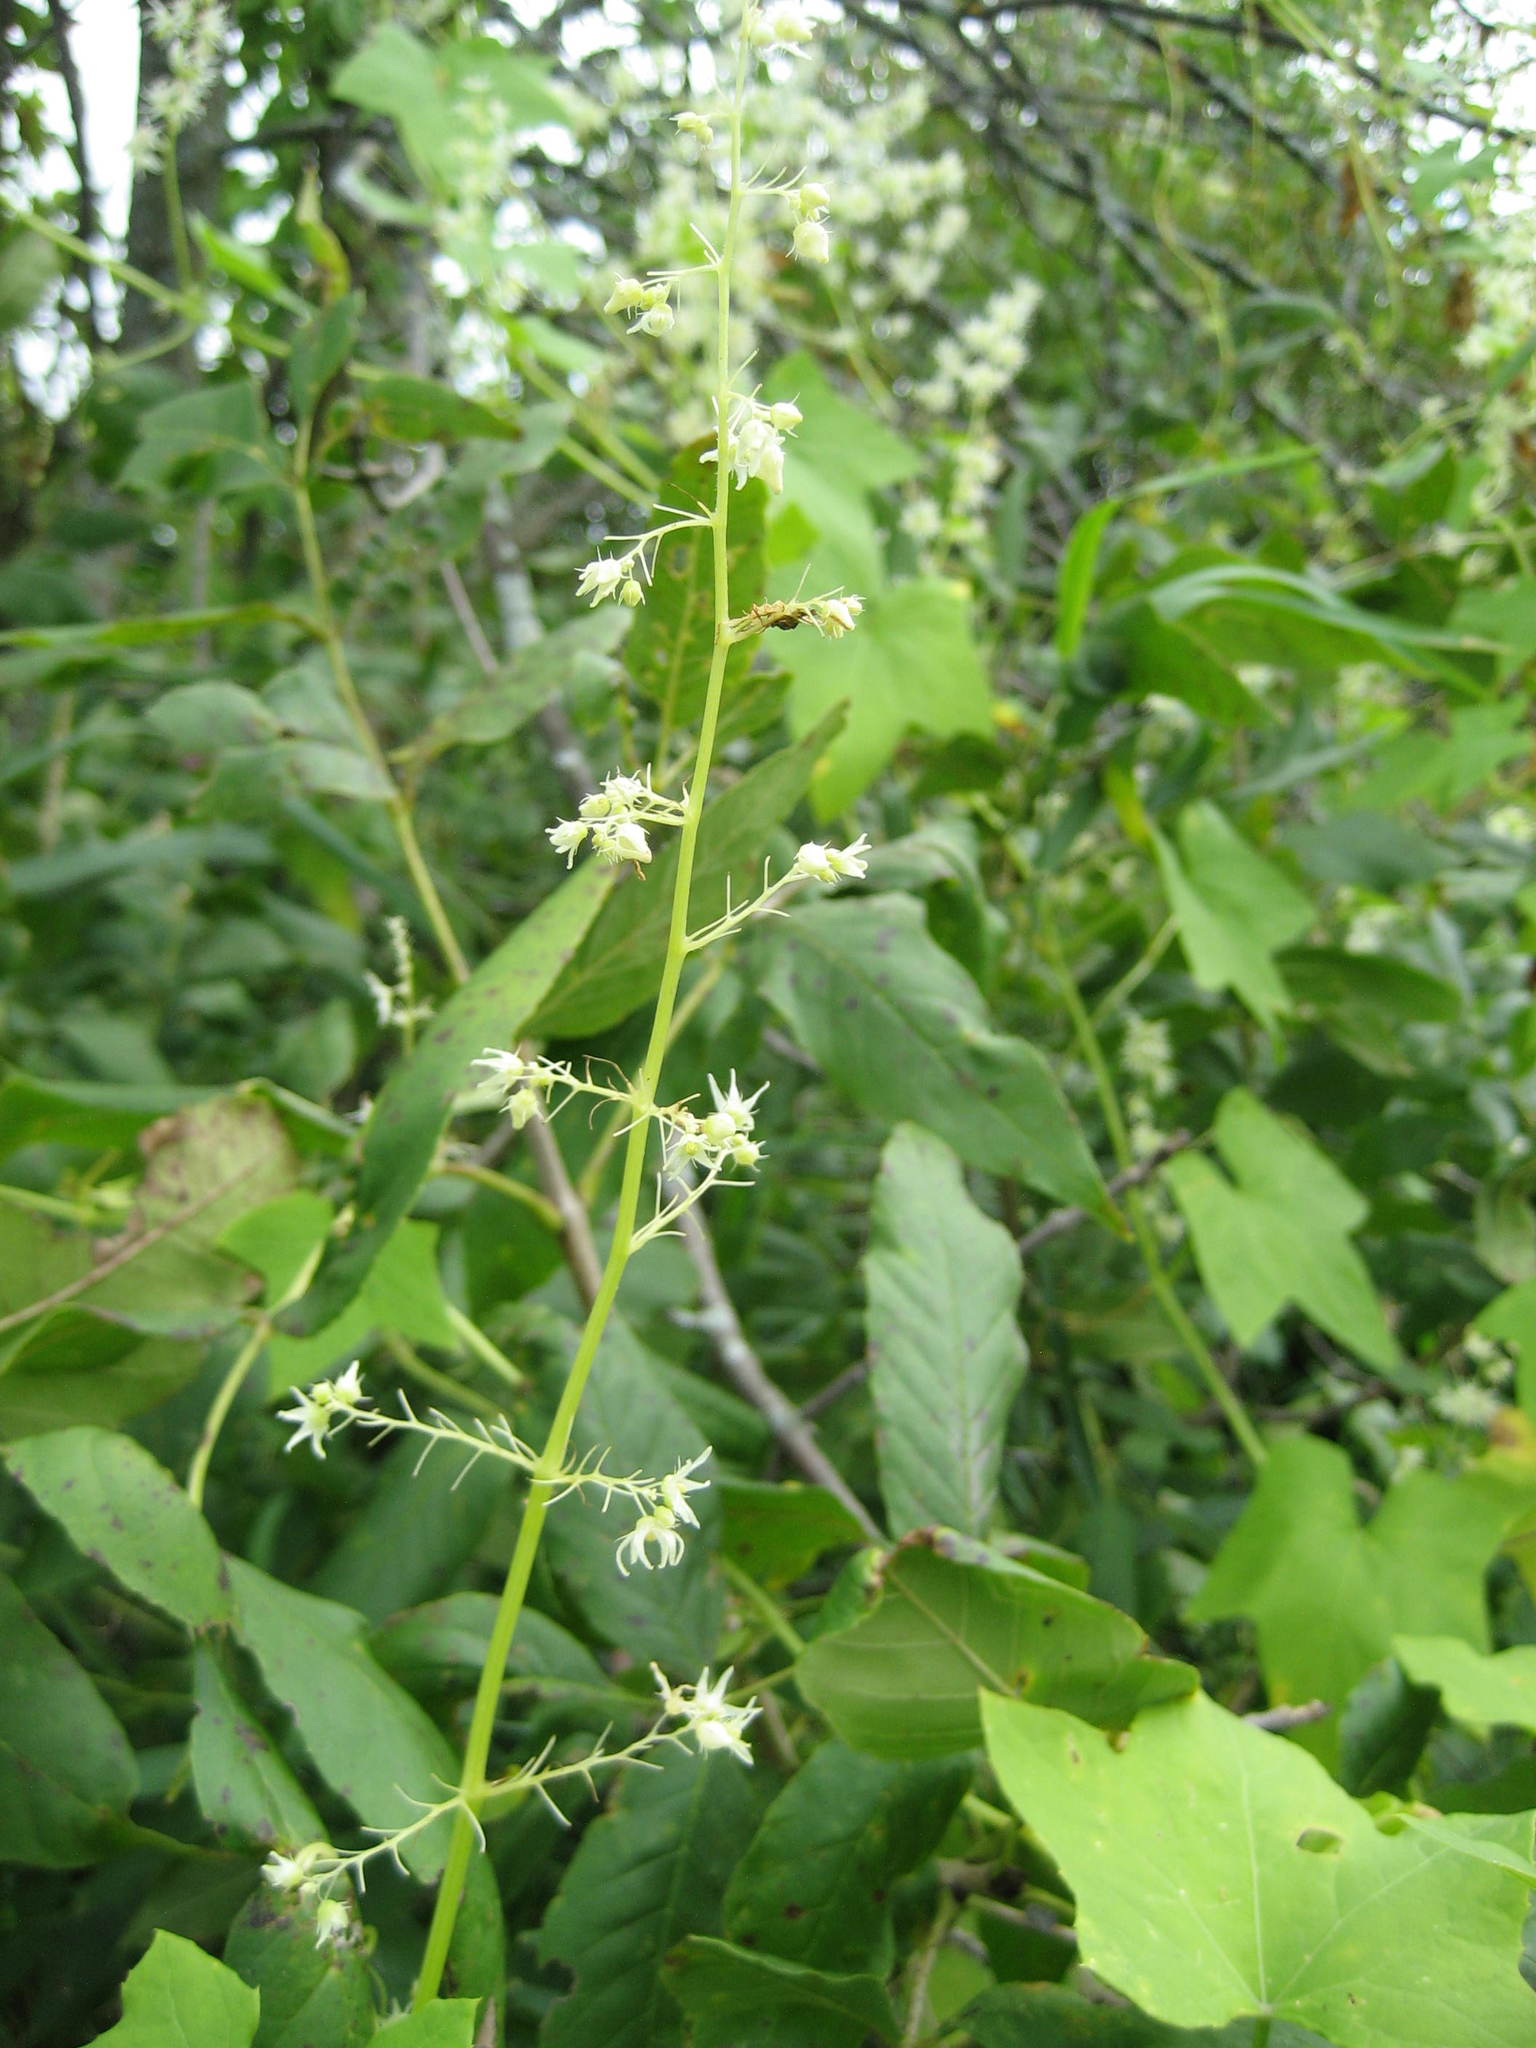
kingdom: Plantae
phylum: Tracheophyta
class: Magnoliopsida
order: Cucurbitales
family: Cucurbitaceae
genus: Echinocystis
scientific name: Echinocystis lobata
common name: Wild cucumber
